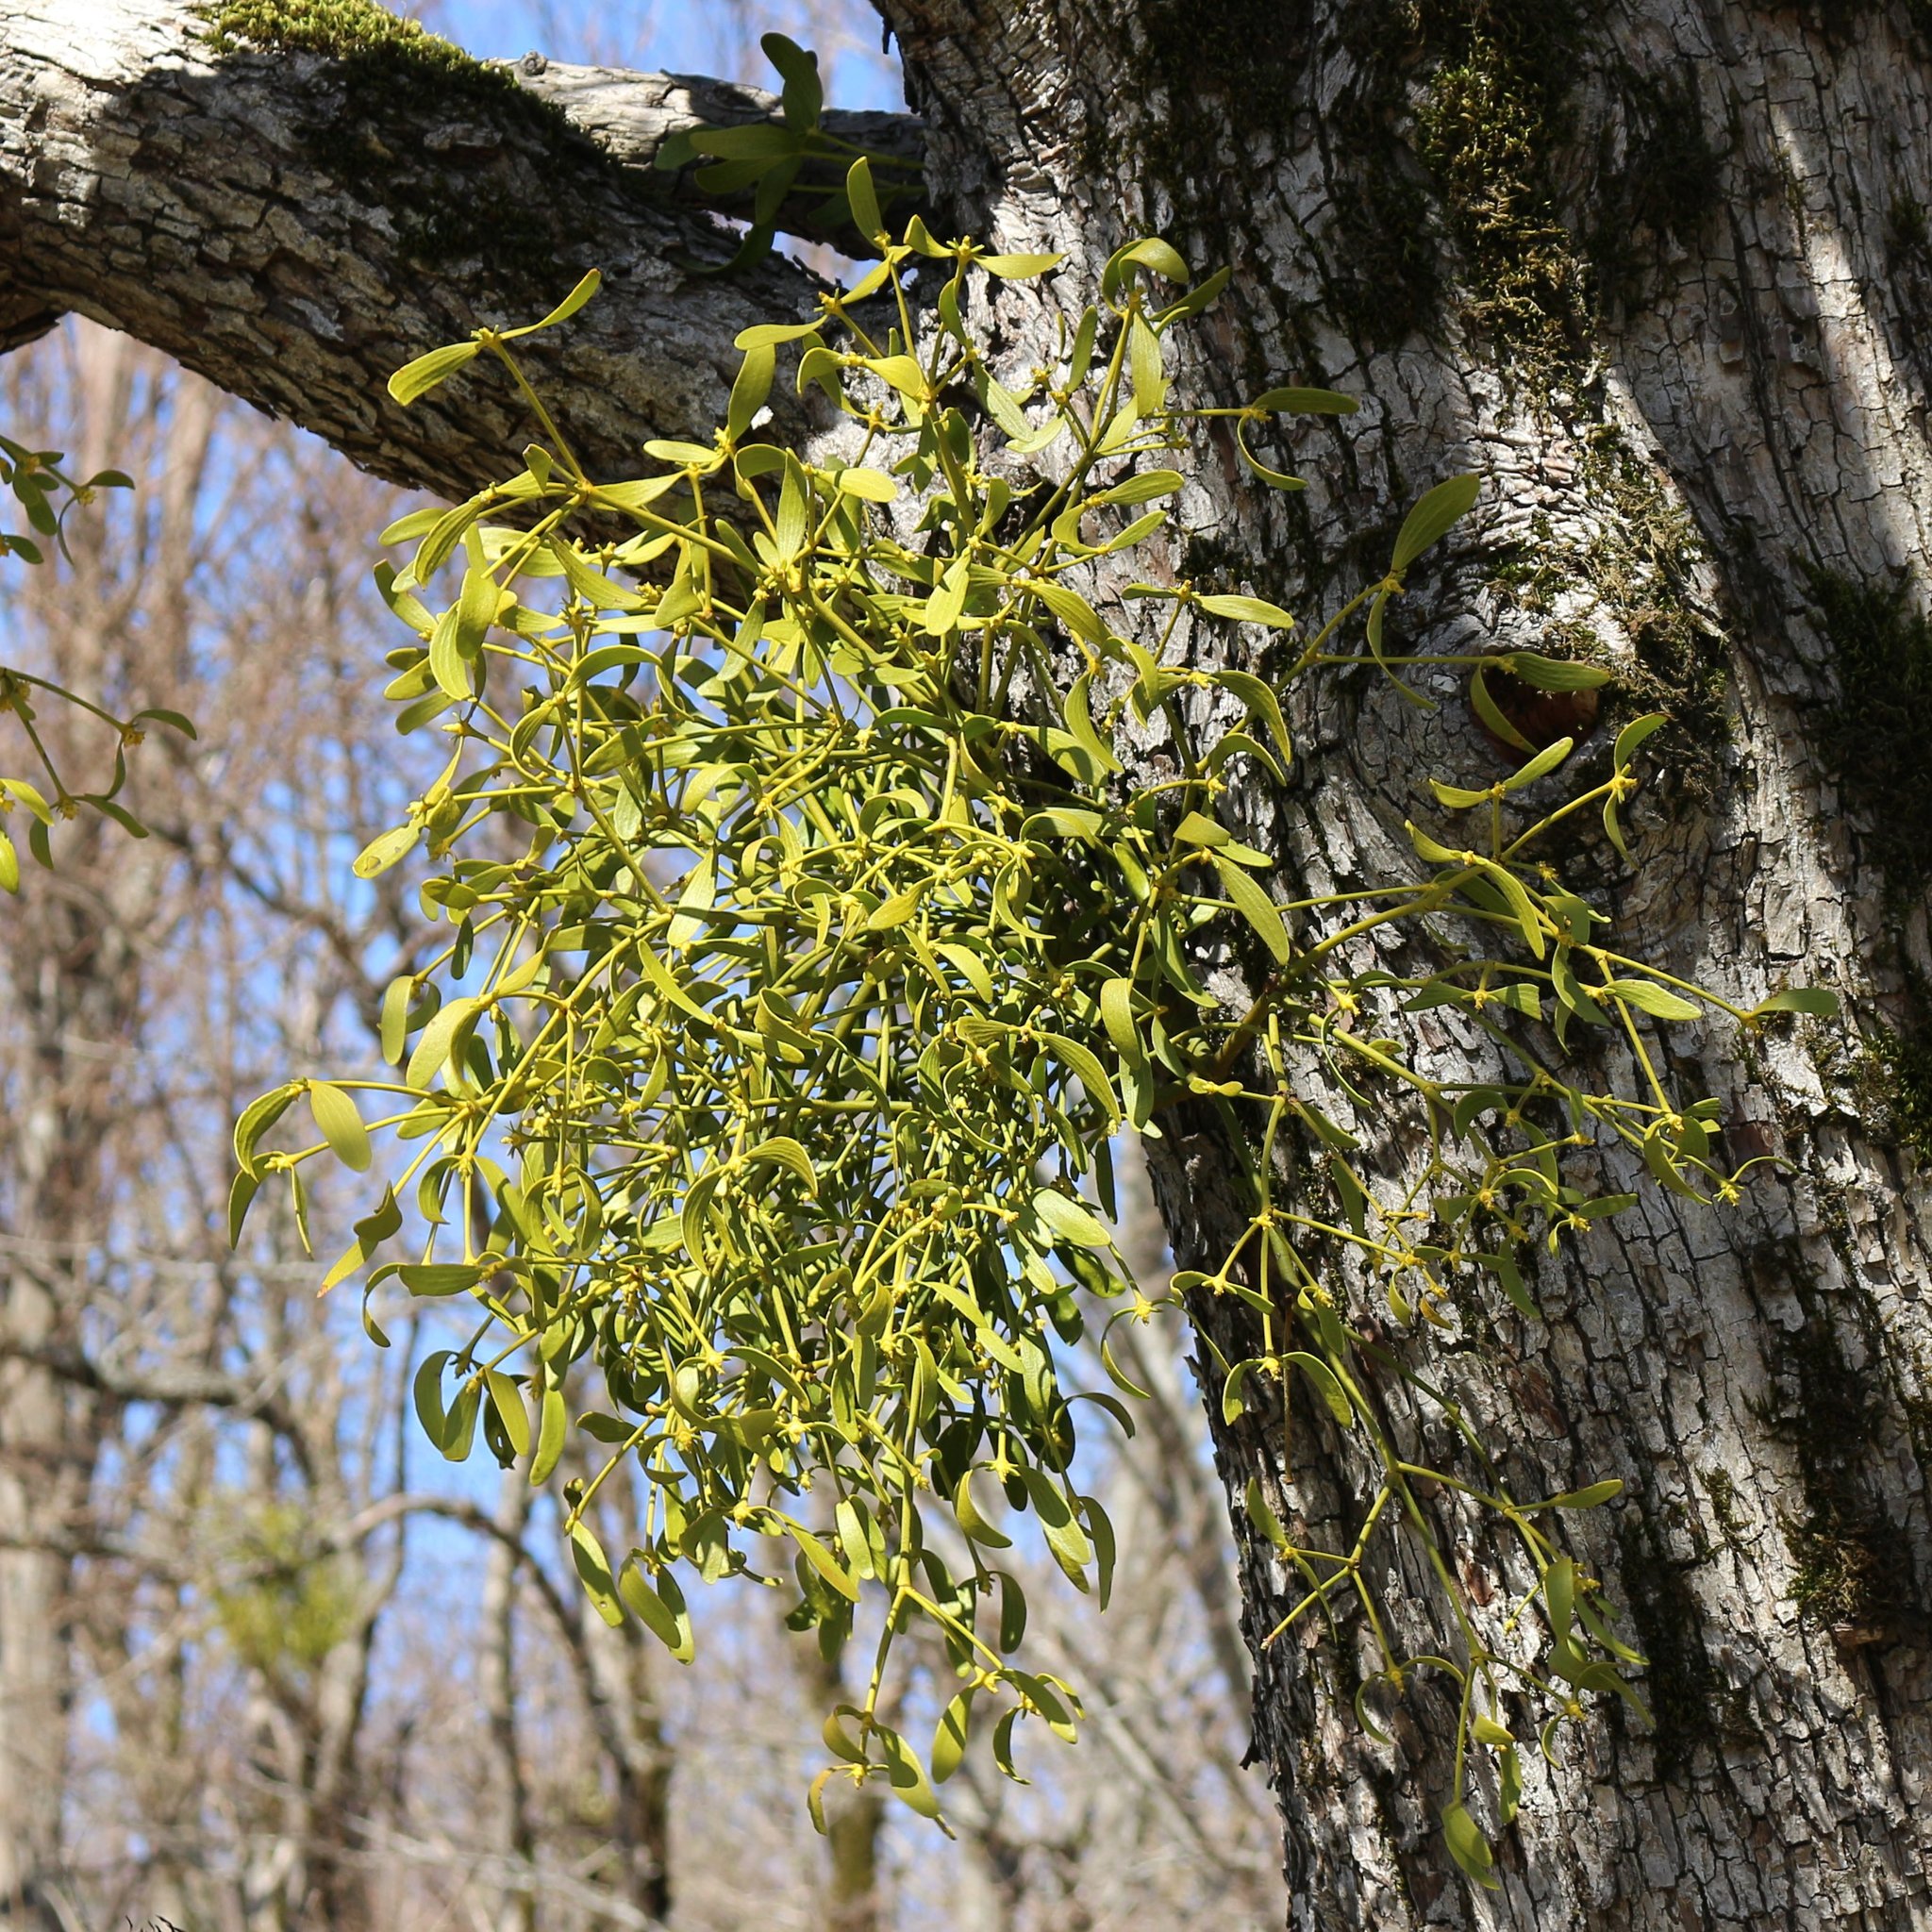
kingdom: Plantae
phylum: Tracheophyta
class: Magnoliopsida
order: Santalales
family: Viscaceae
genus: Viscum
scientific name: Viscum album
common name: Mistletoe
